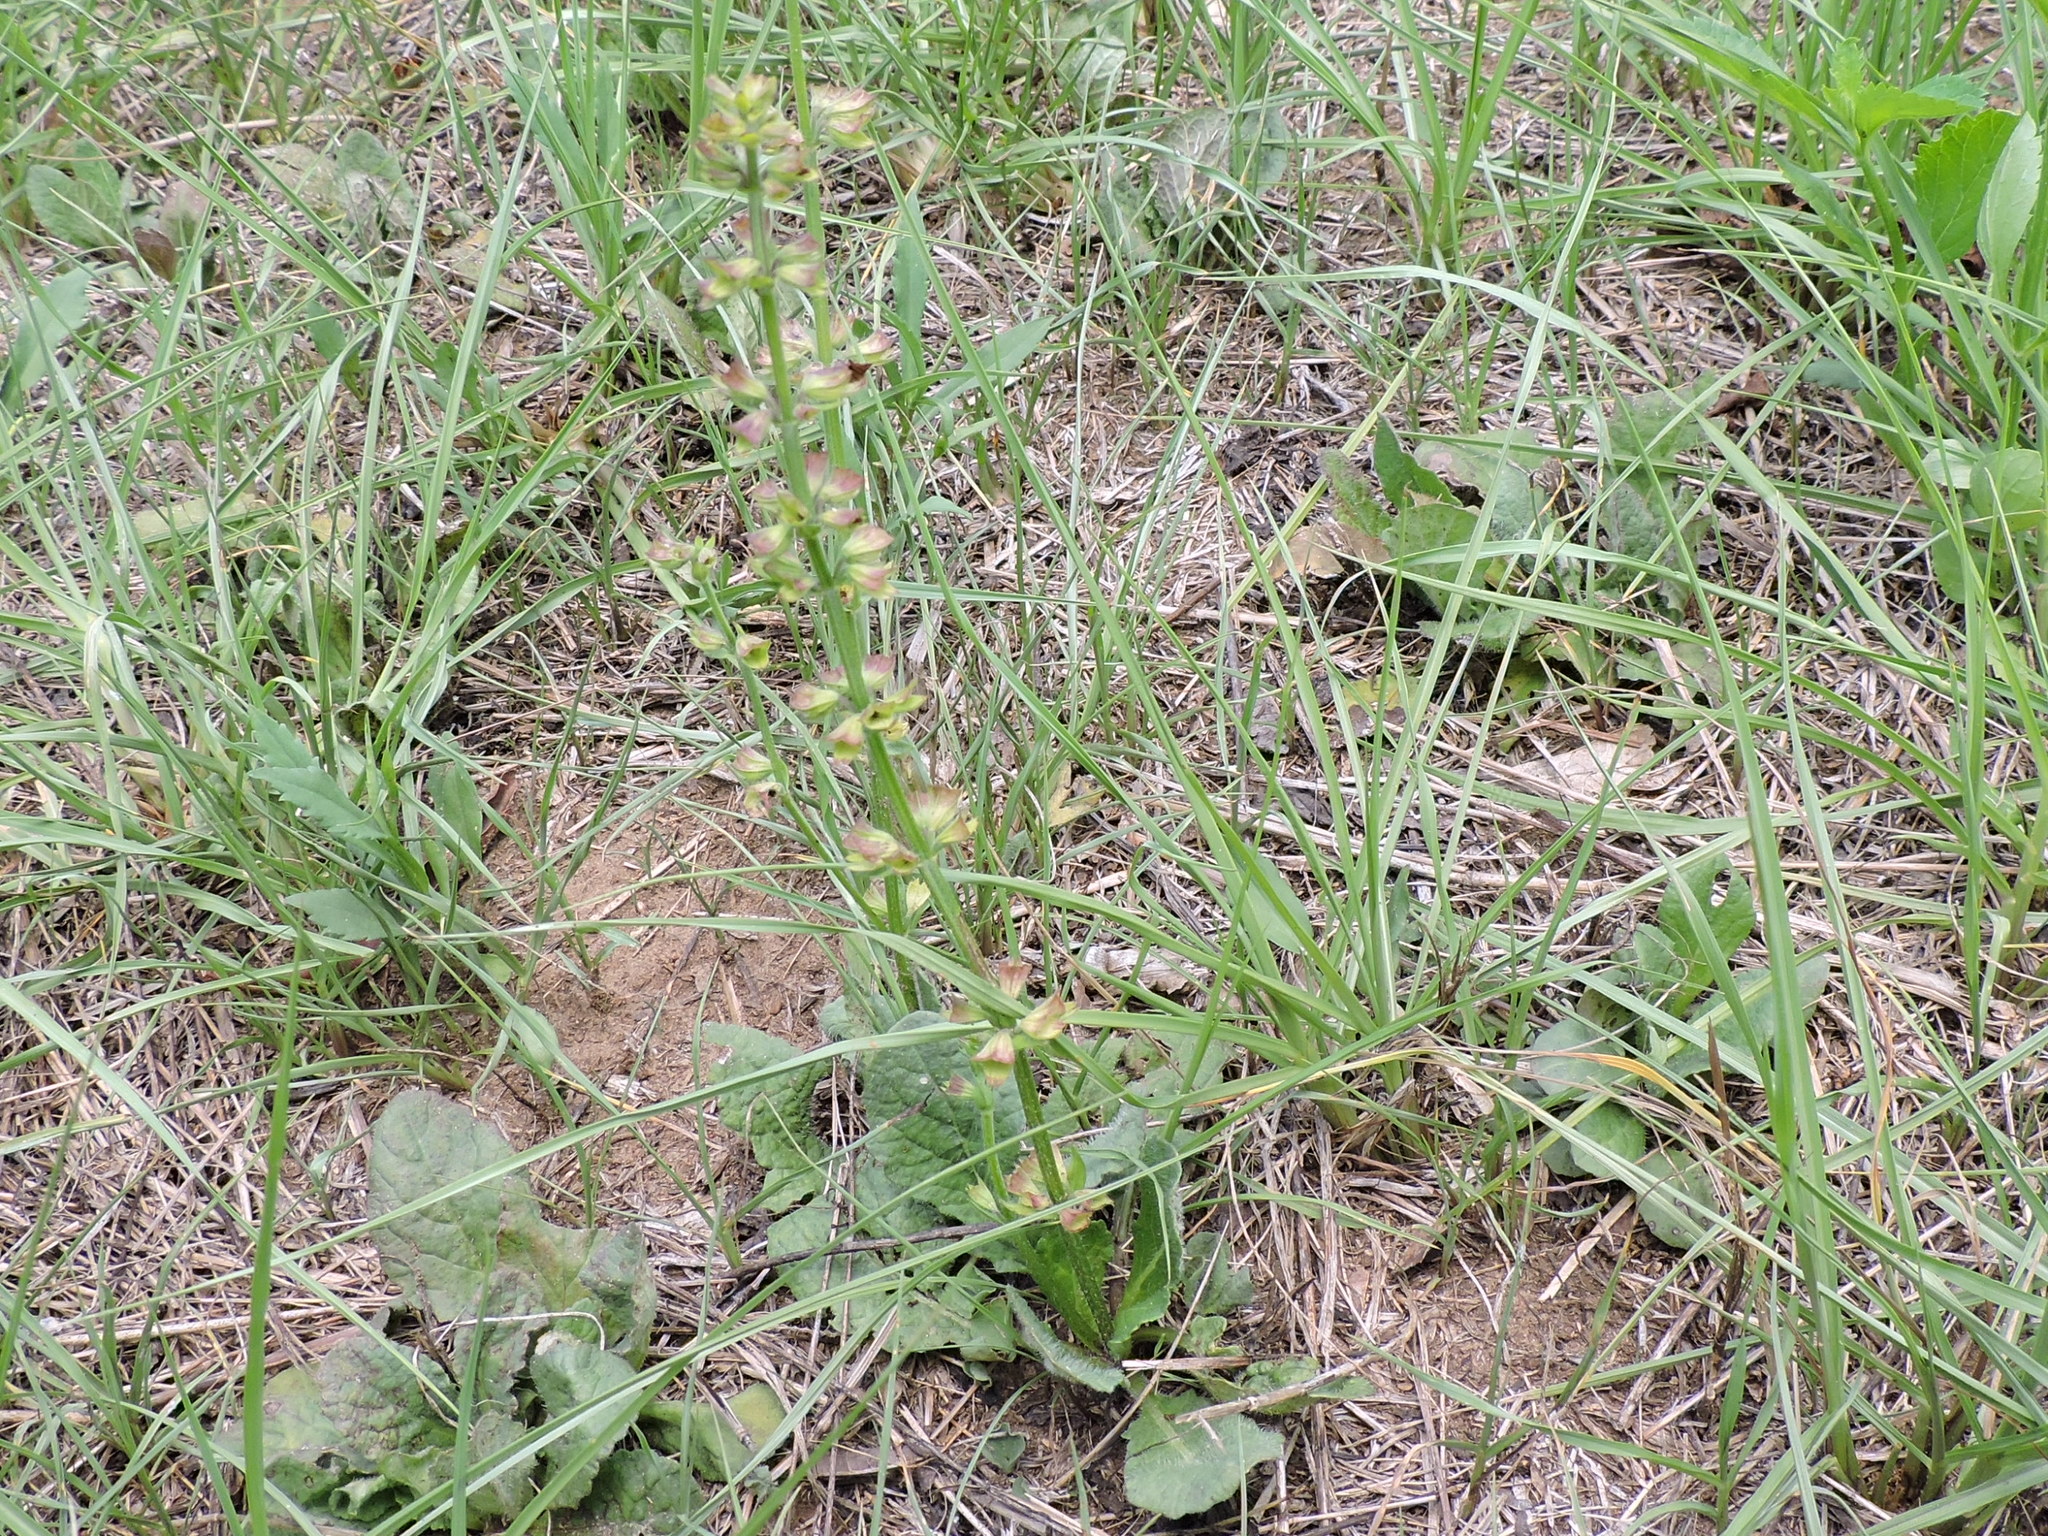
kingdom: Plantae
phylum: Tracheophyta
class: Magnoliopsida
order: Lamiales
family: Lamiaceae
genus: Salvia
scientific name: Salvia lyrata
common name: Cancerweed
